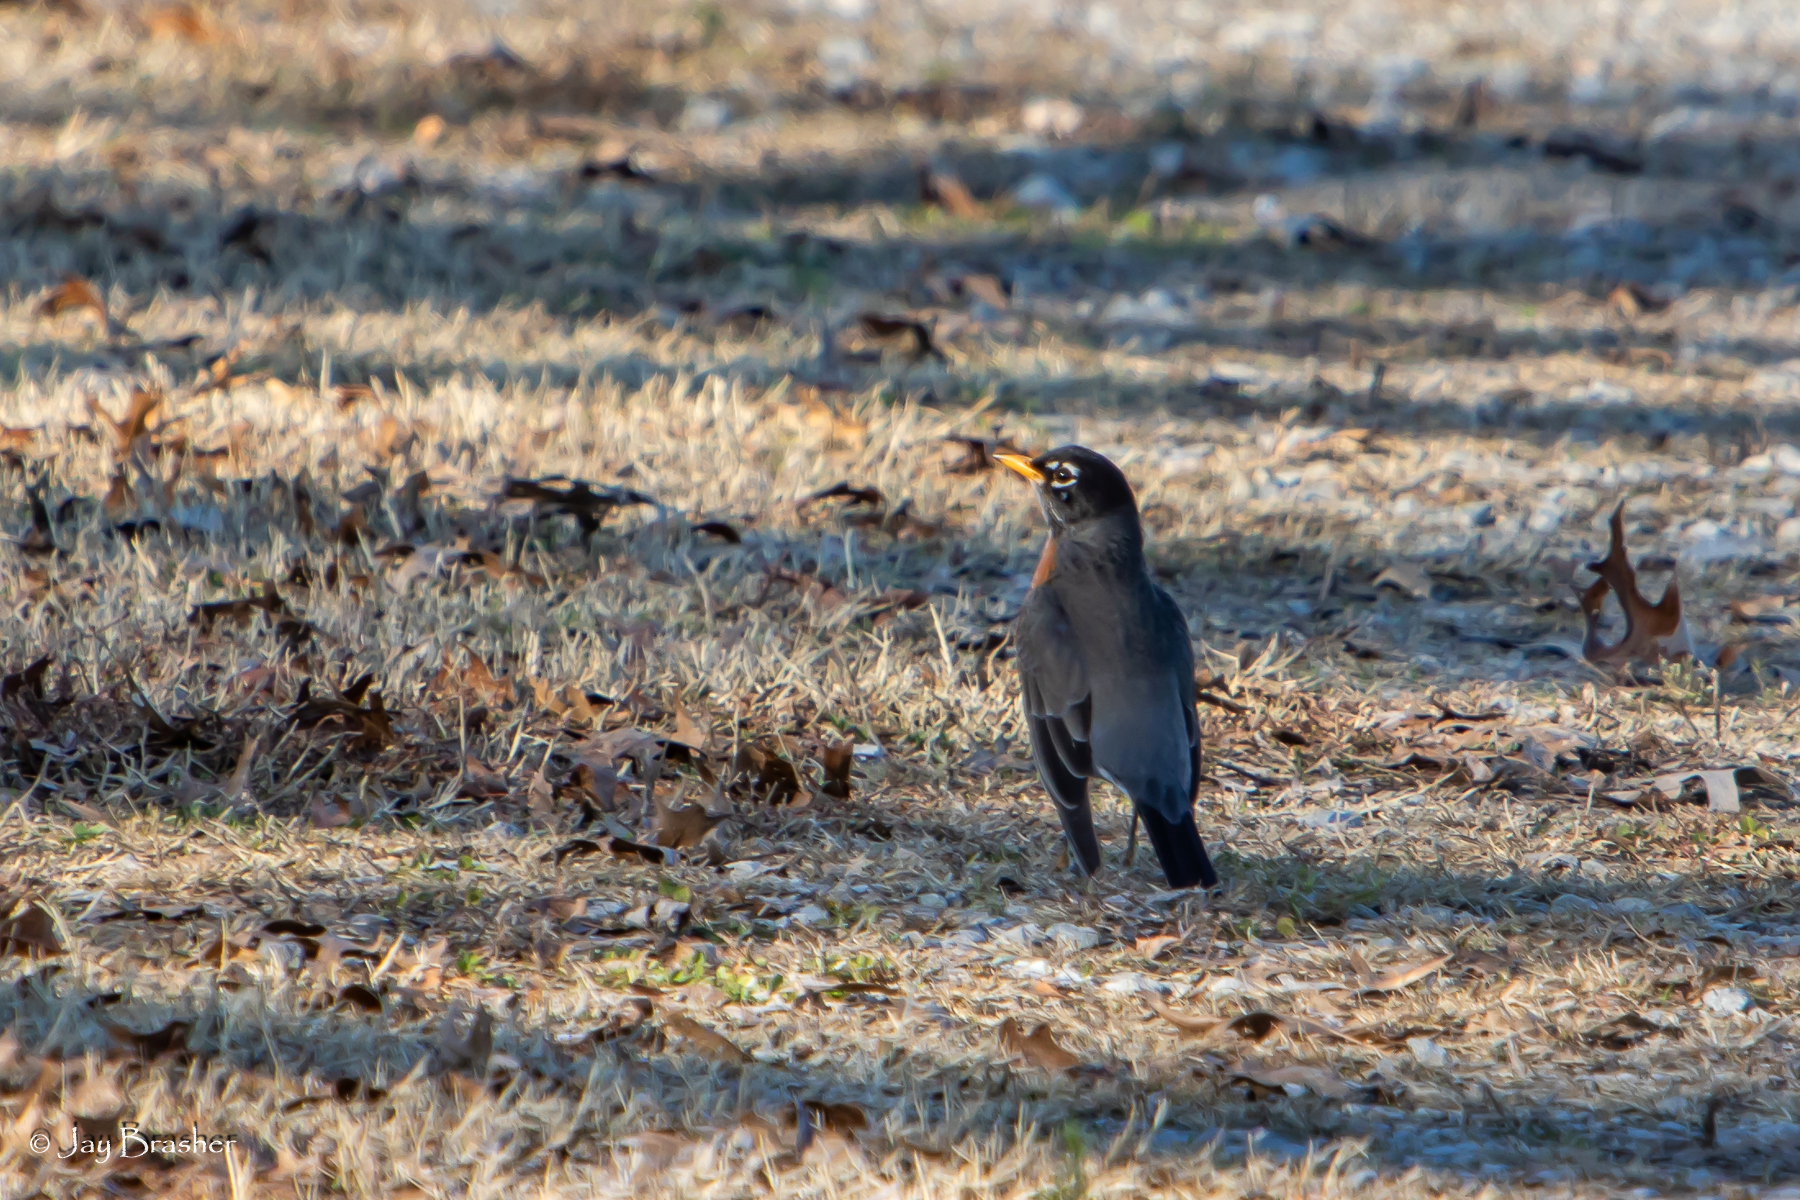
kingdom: Animalia
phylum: Chordata
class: Aves
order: Passeriformes
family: Turdidae
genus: Turdus
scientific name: Turdus migratorius
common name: American robin
